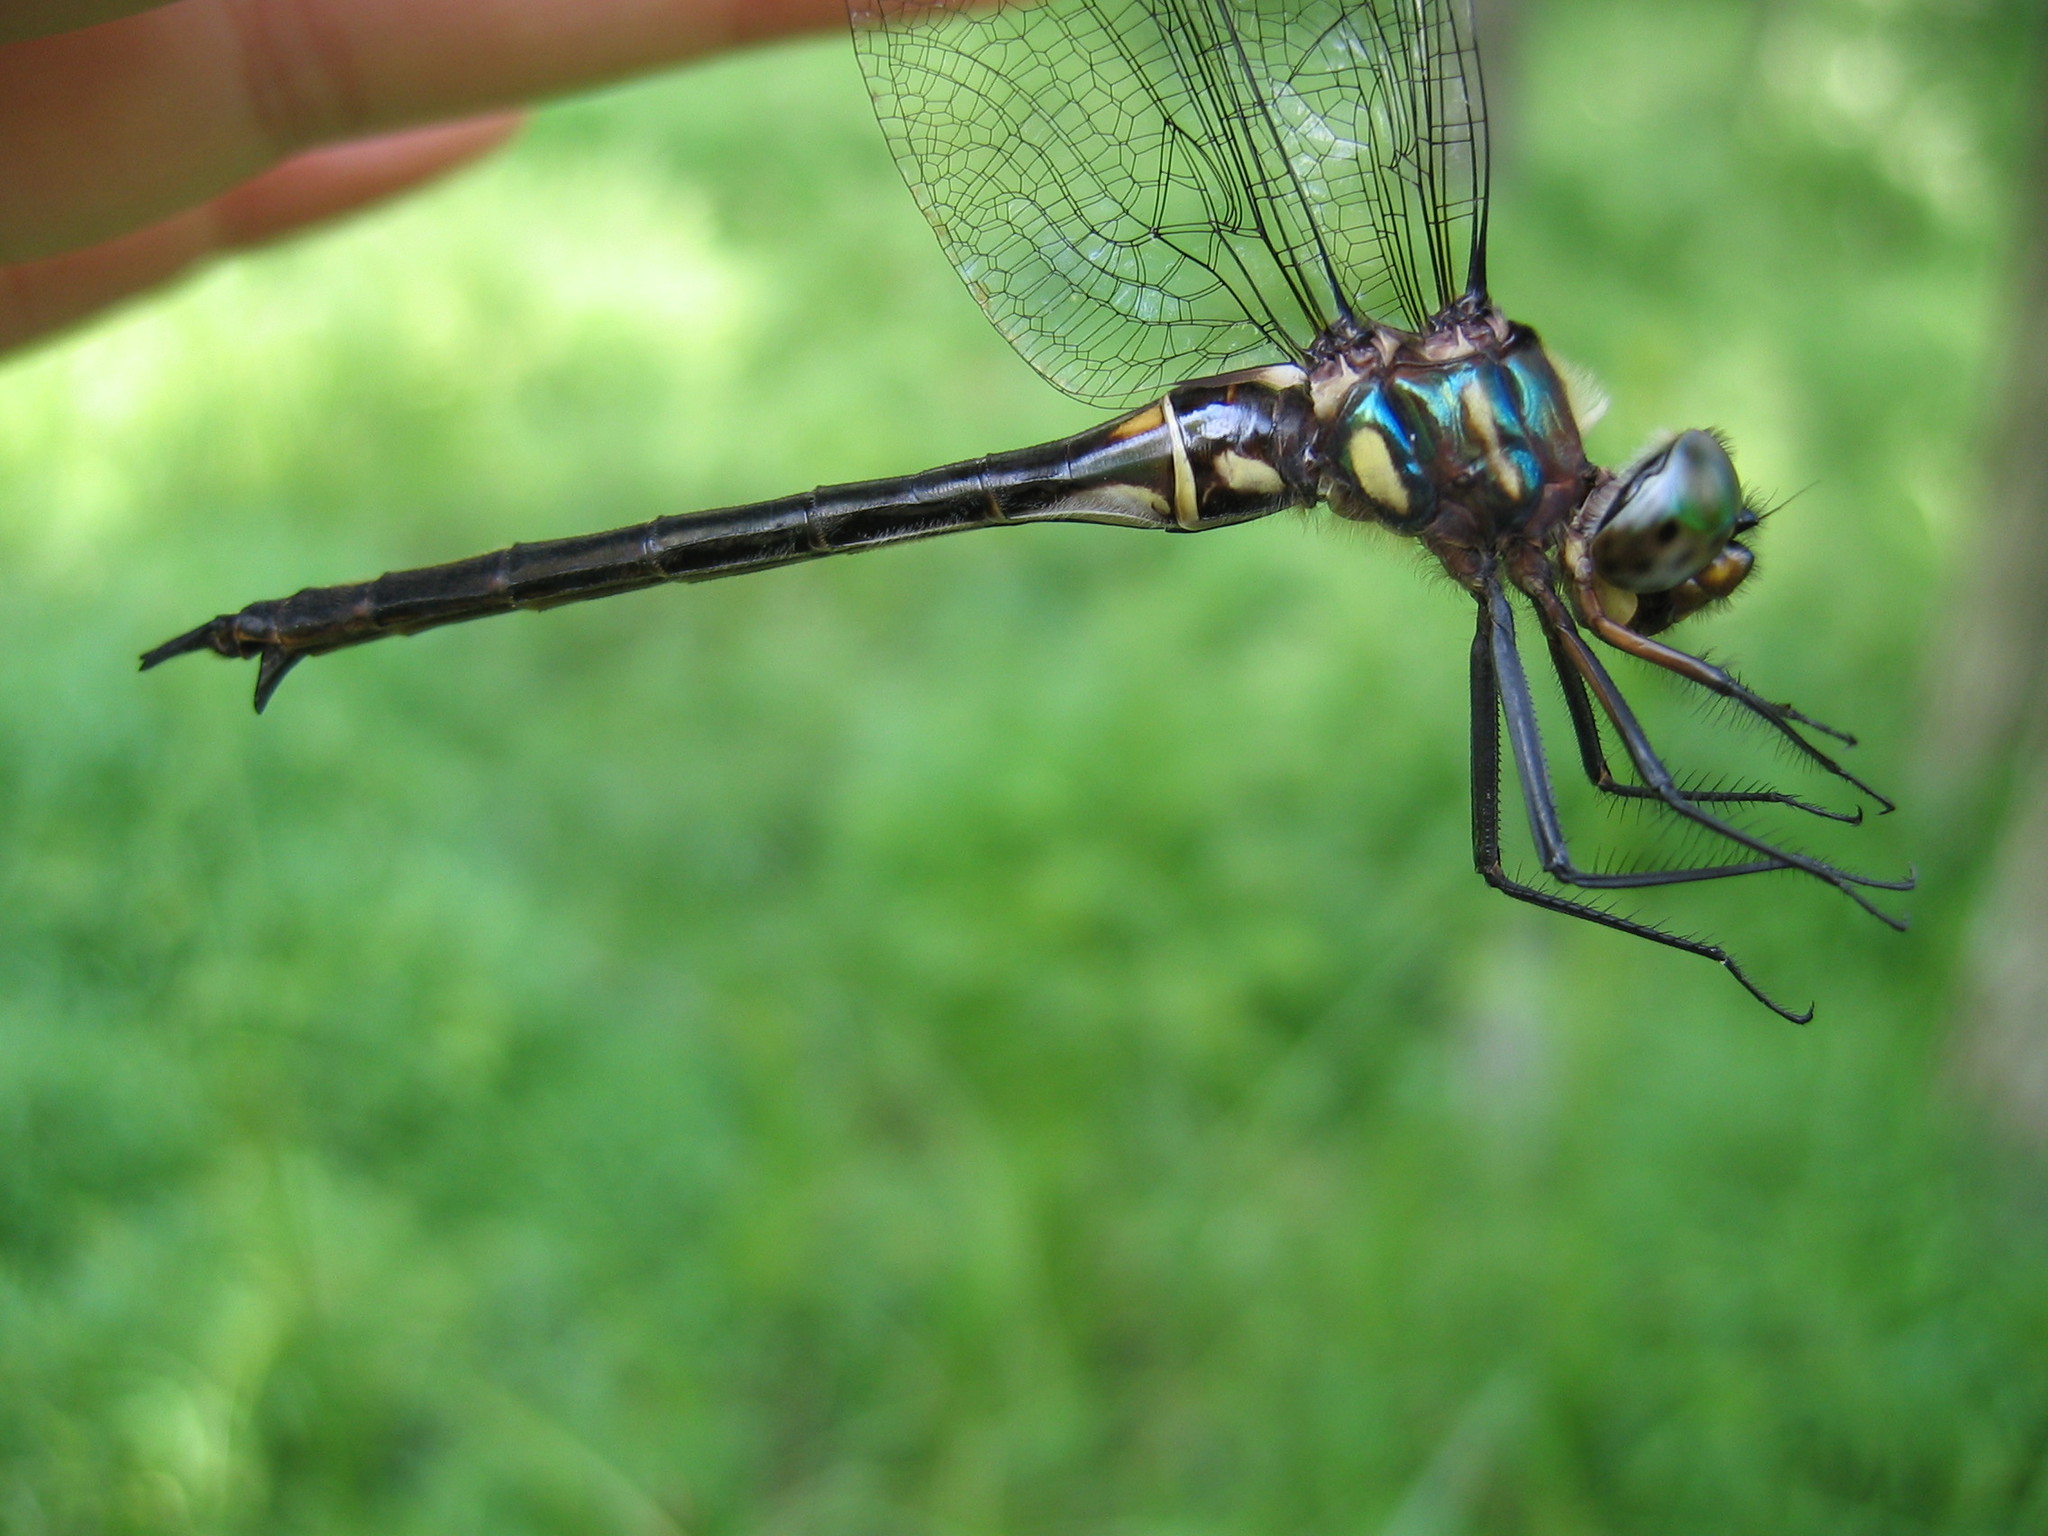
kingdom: Animalia
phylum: Arthropoda
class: Insecta
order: Odonata
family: Corduliidae
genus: Somatochlora
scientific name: Somatochlora tenebrosa
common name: Clamp-tipped emerald
